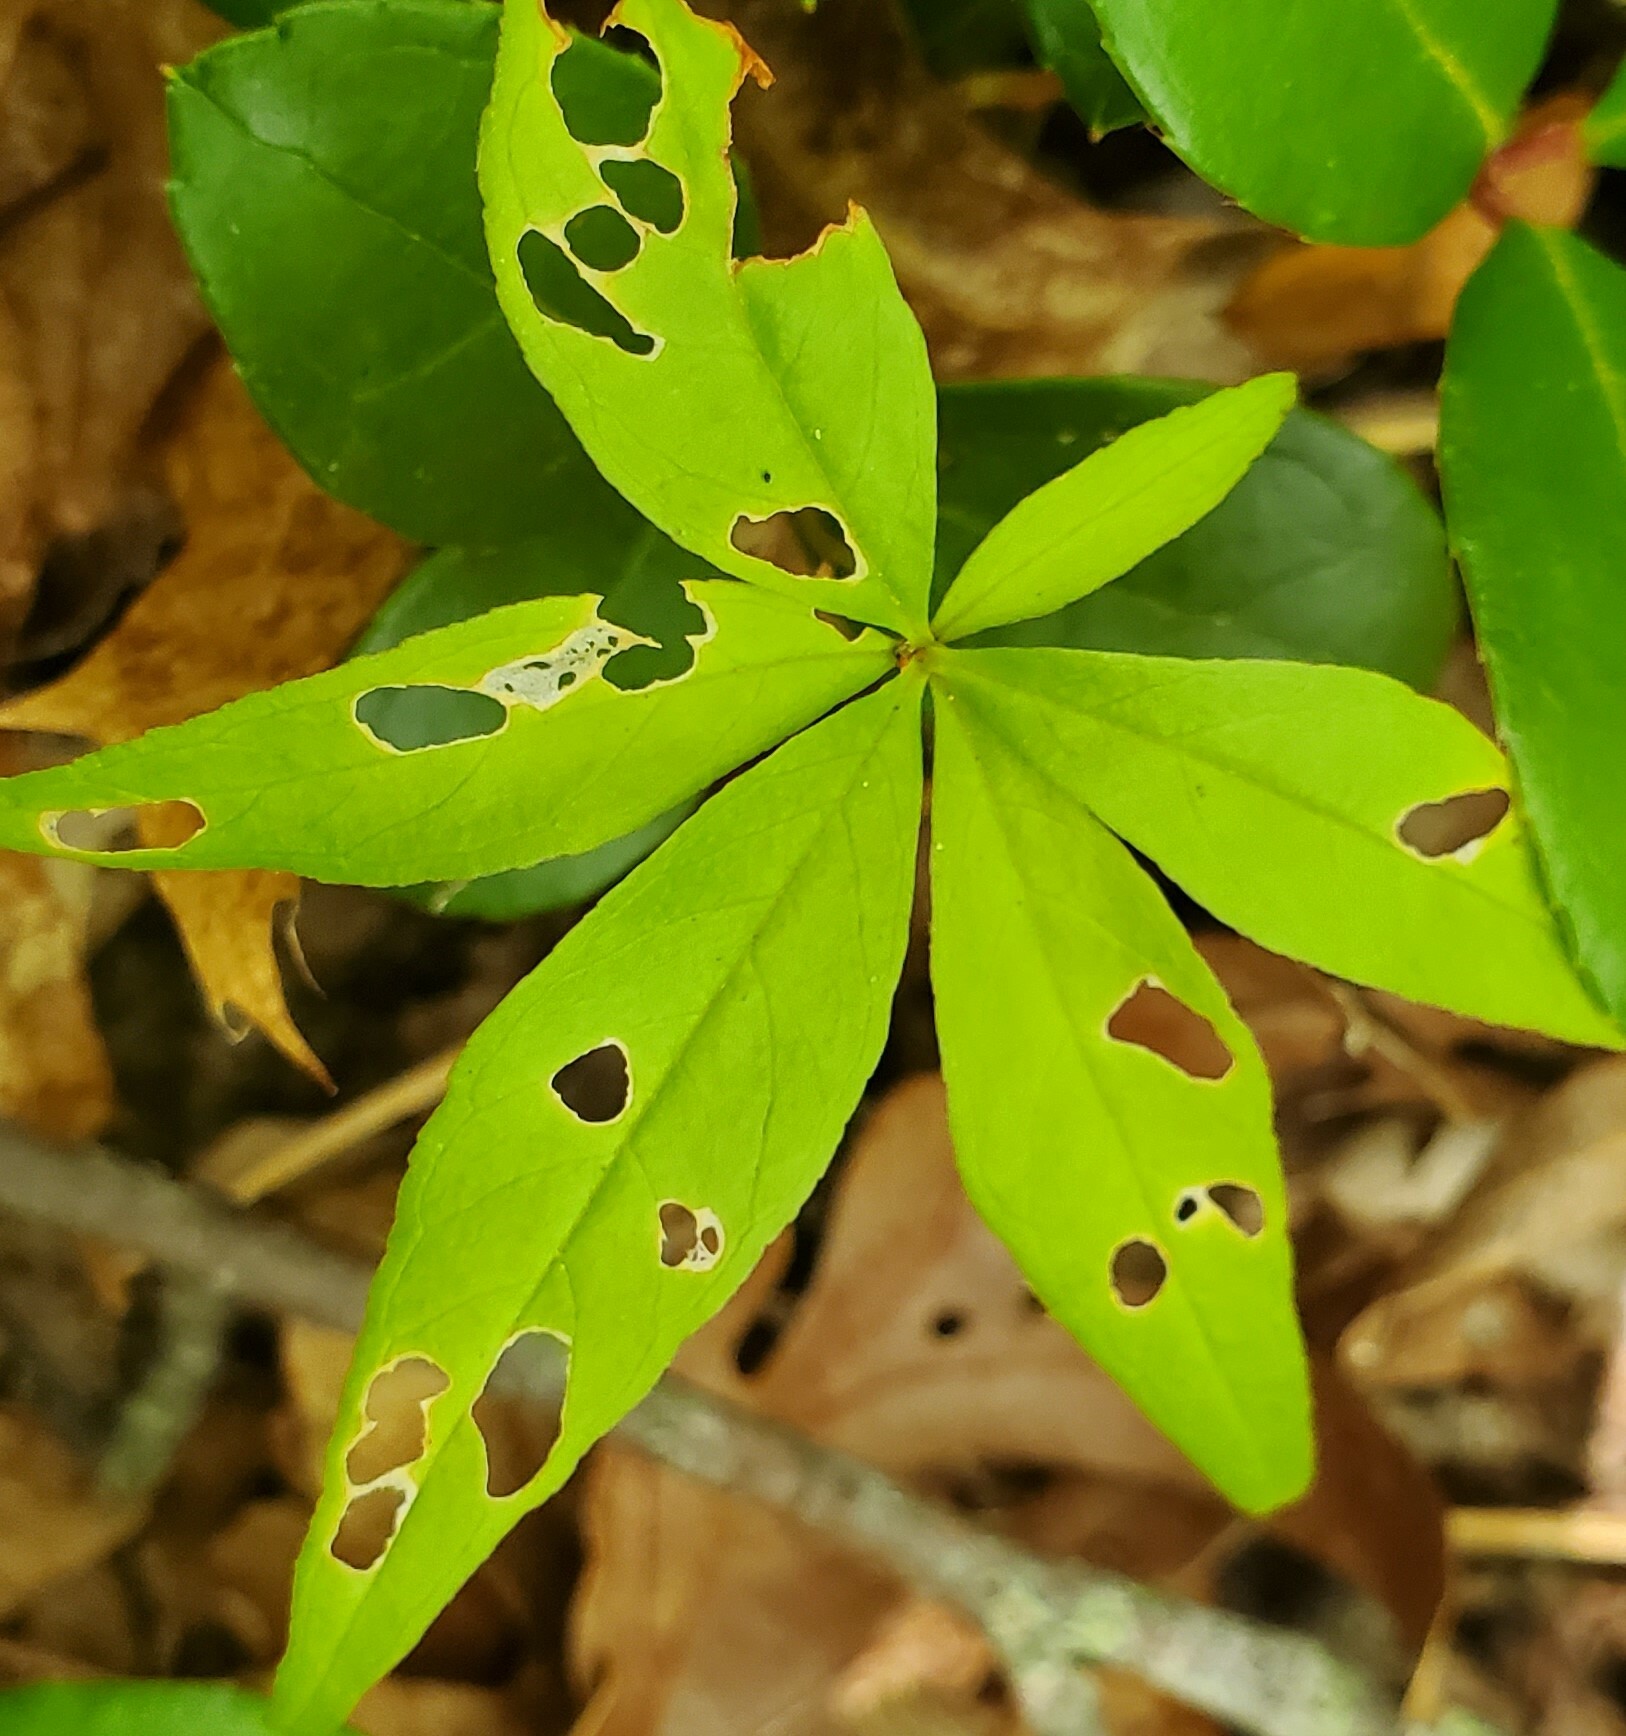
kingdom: Plantae
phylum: Tracheophyta
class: Magnoliopsida
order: Ericales
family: Primulaceae
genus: Lysimachia
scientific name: Lysimachia borealis
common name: American starflower
